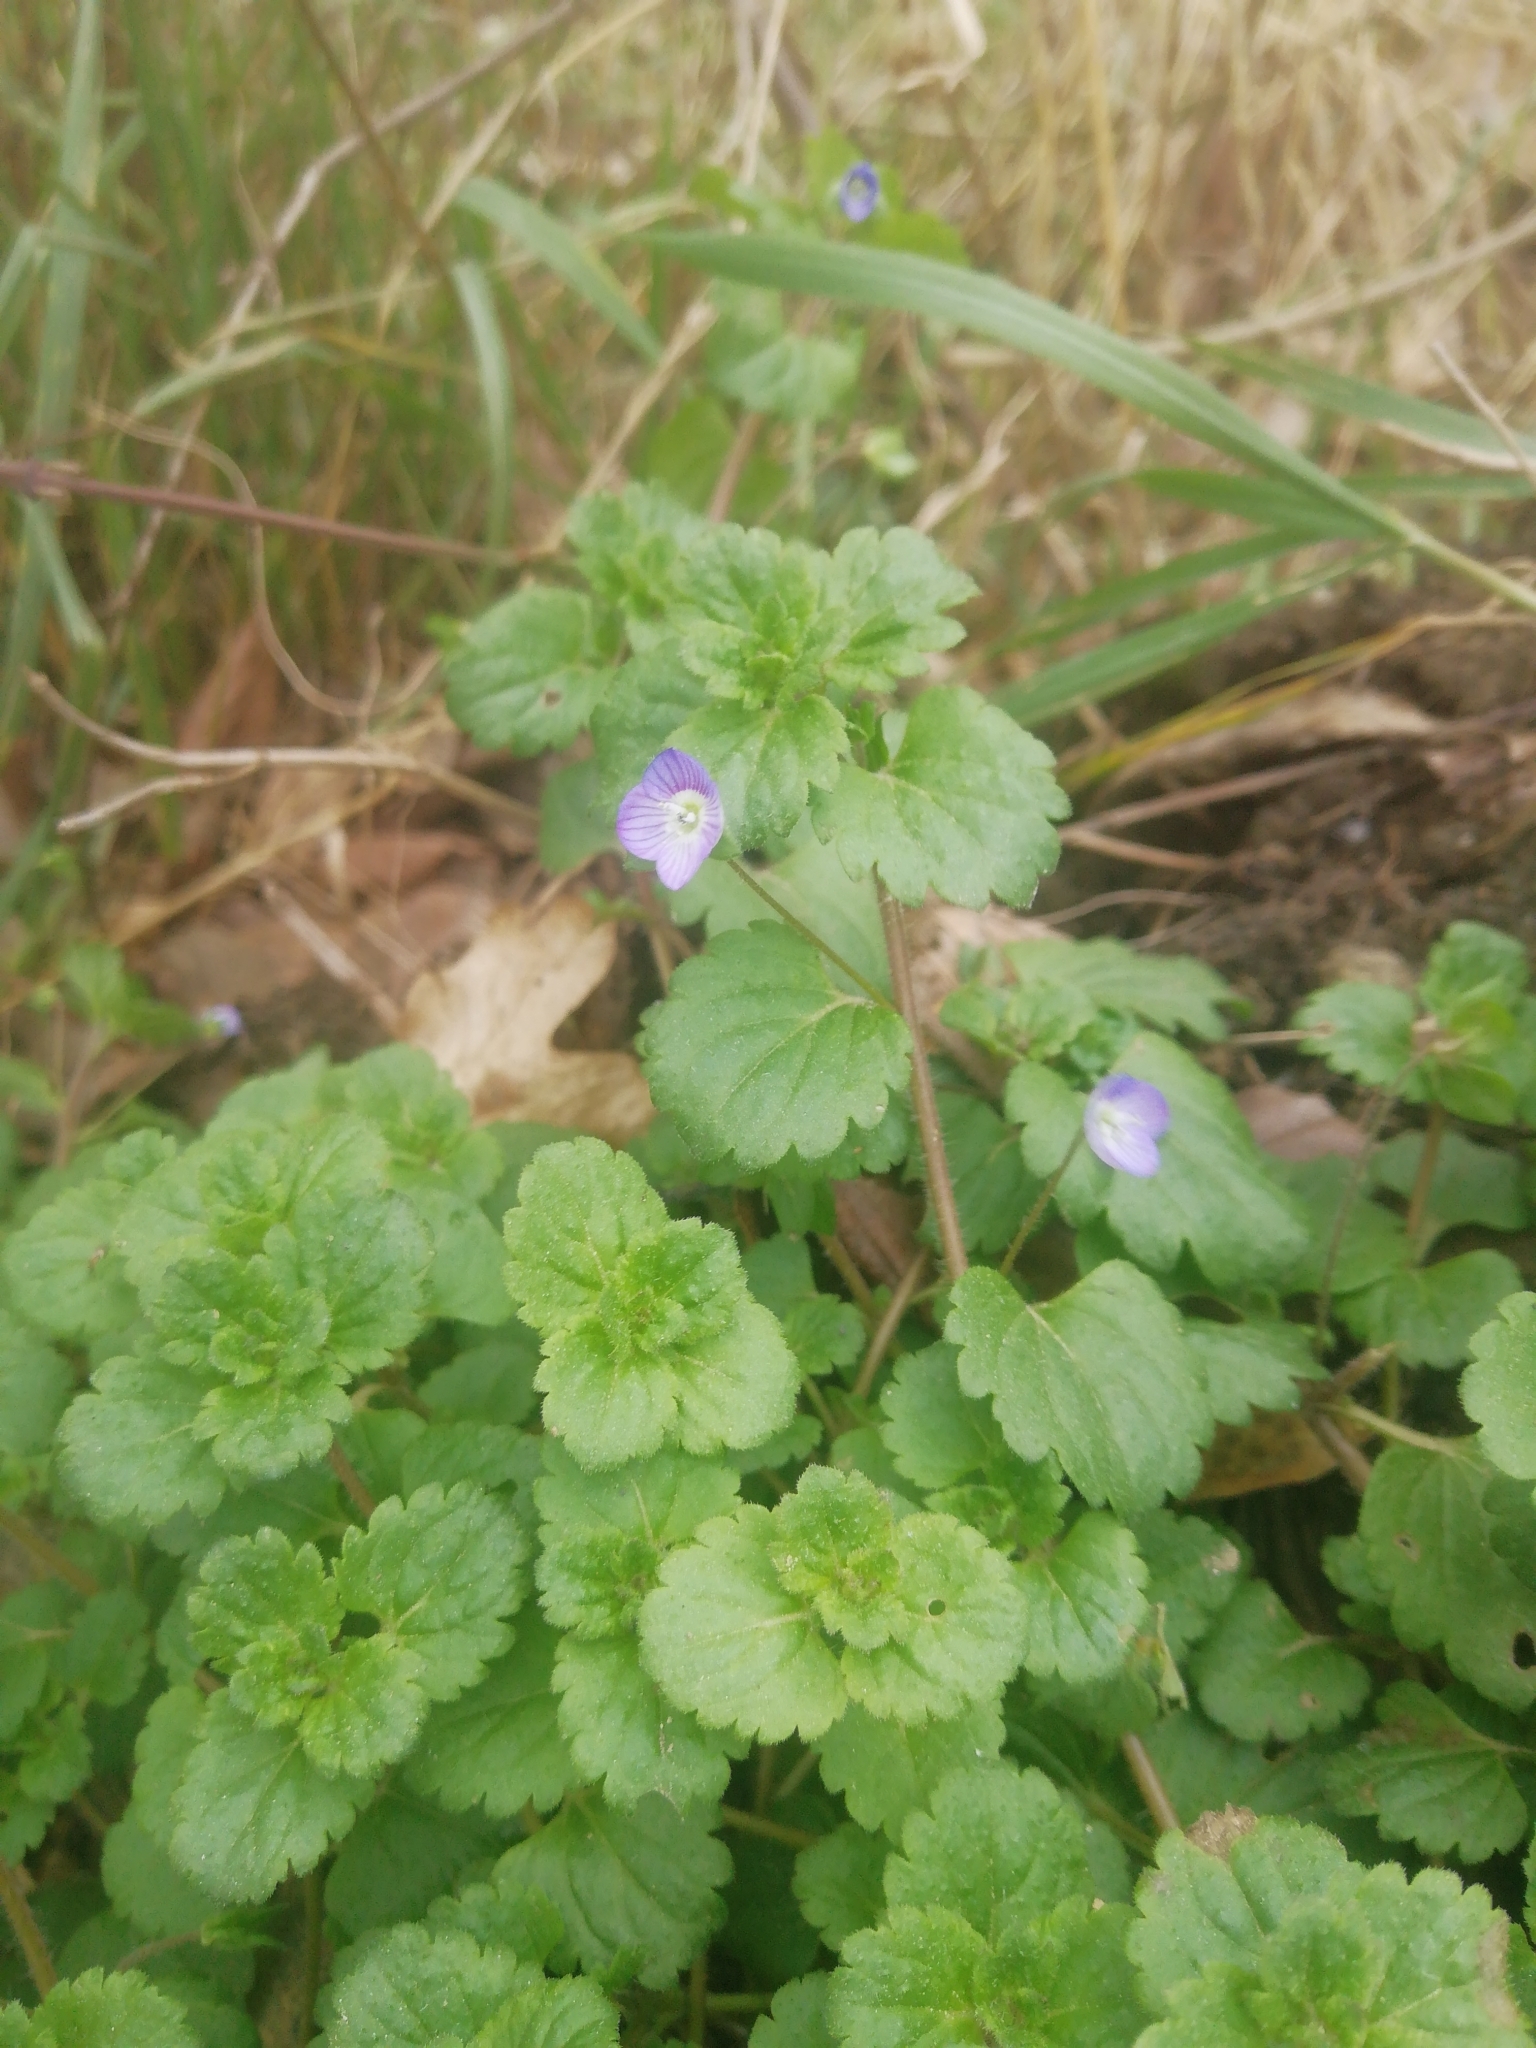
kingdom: Plantae
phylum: Tracheophyta
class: Magnoliopsida
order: Lamiales
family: Plantaginaceae
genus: Veronica
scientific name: Veronica persica
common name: Common field-speedwell
